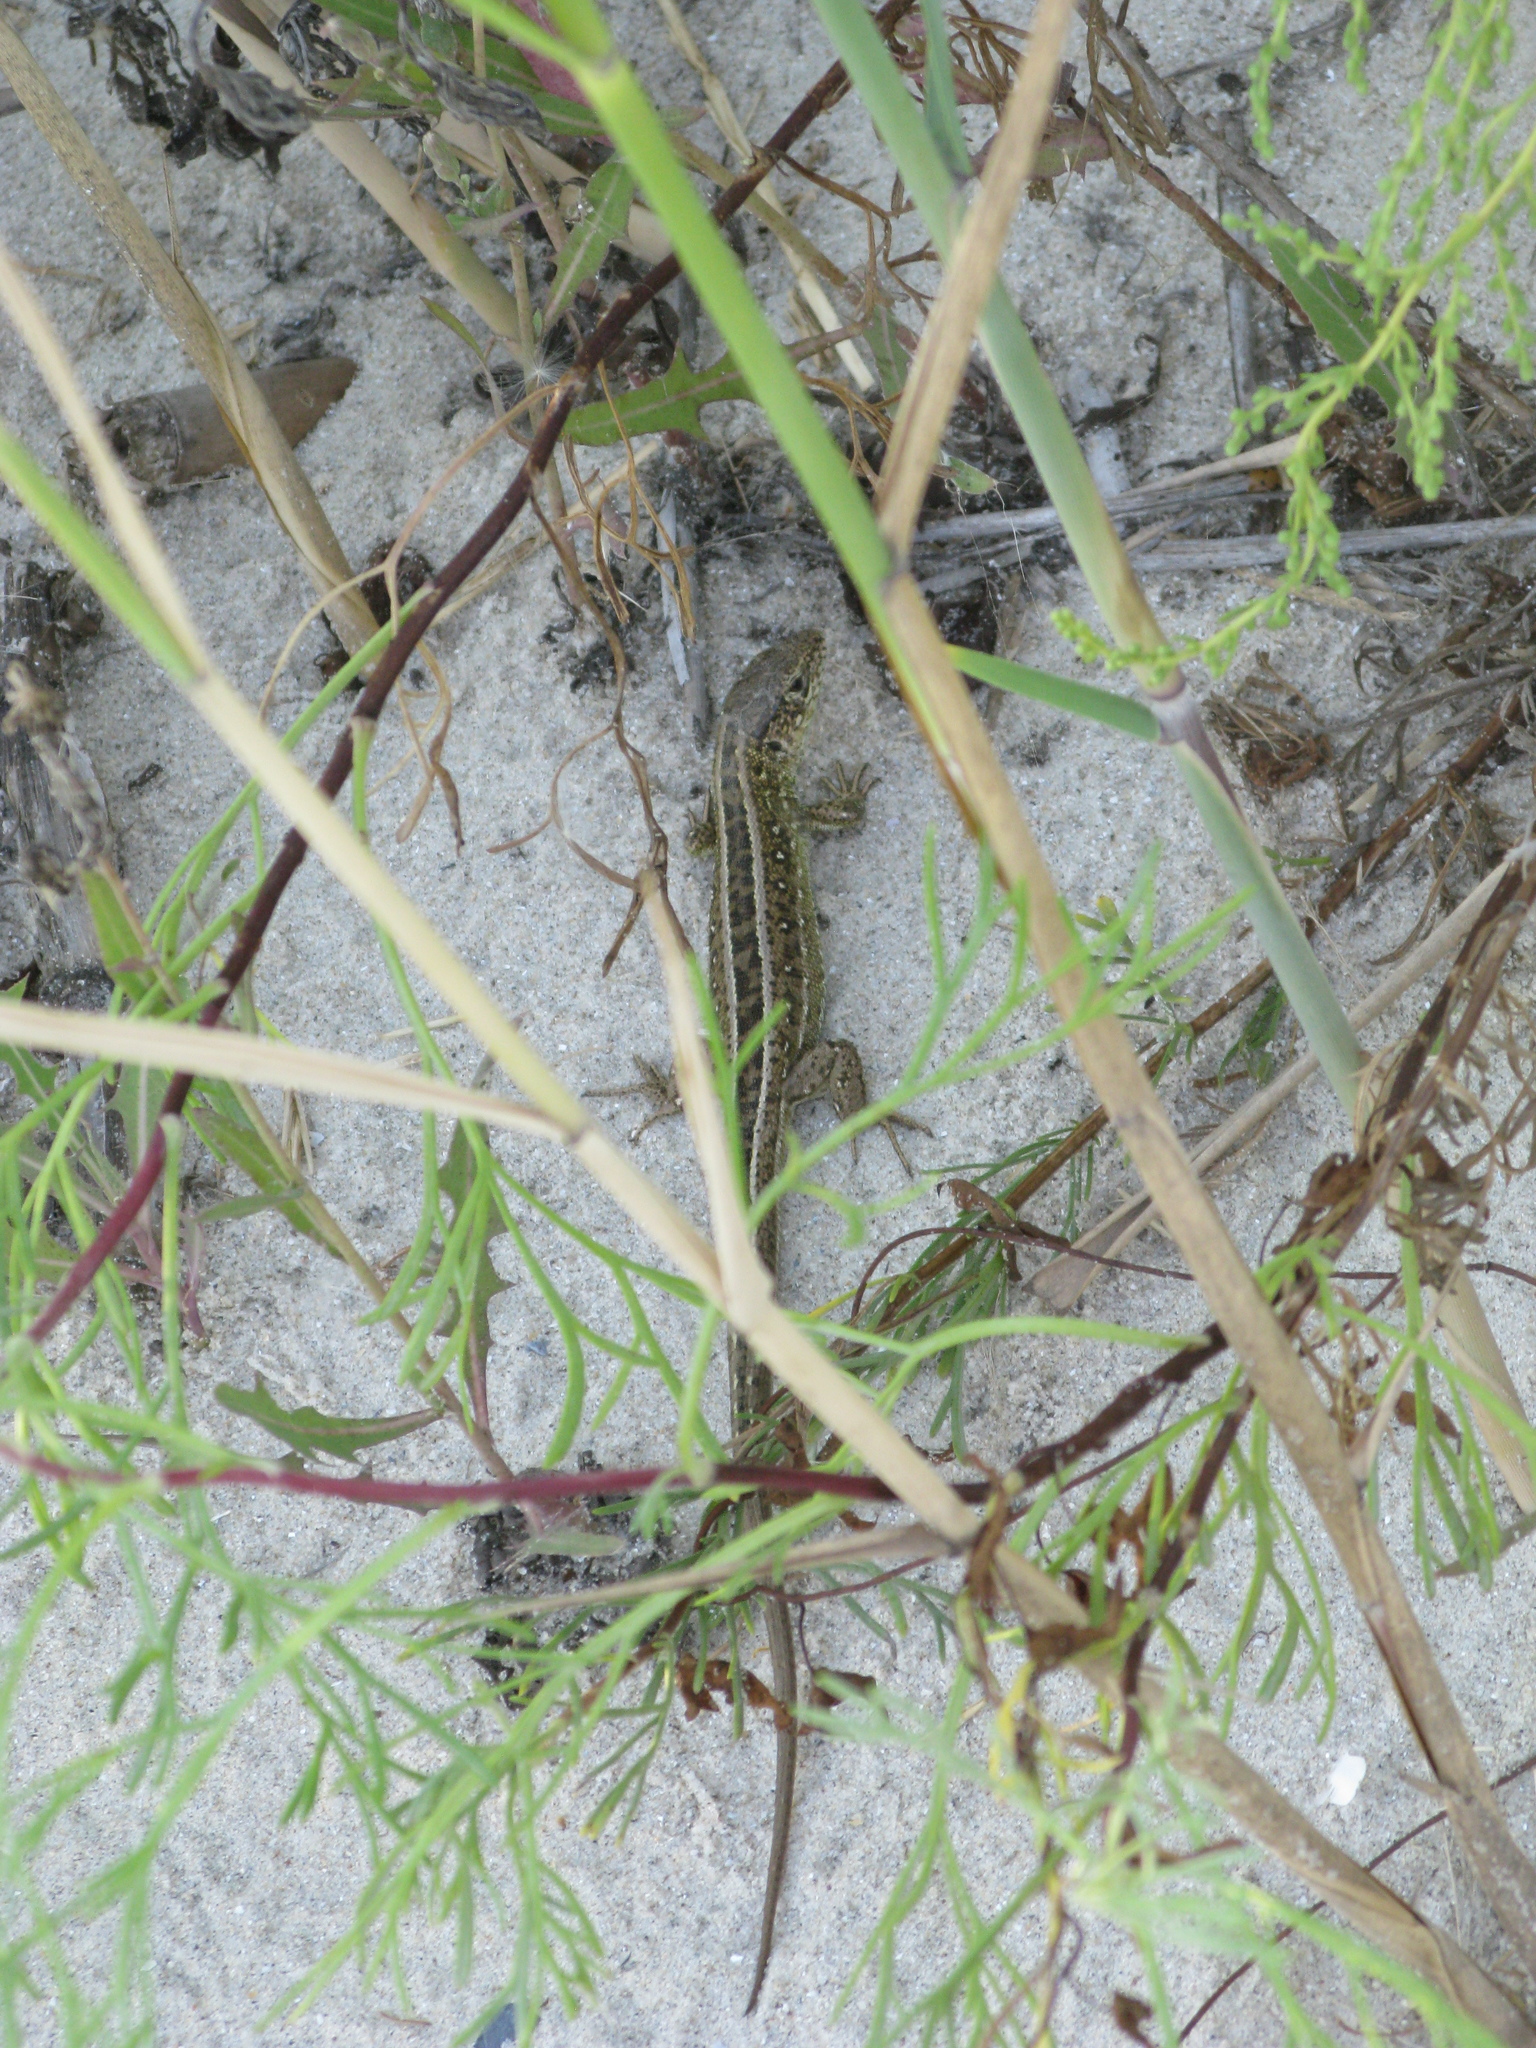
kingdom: Animalia
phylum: Chordata
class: Squamata
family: Lacertidae
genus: Lacerta
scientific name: Lacerta agilis
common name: Sand lizard
